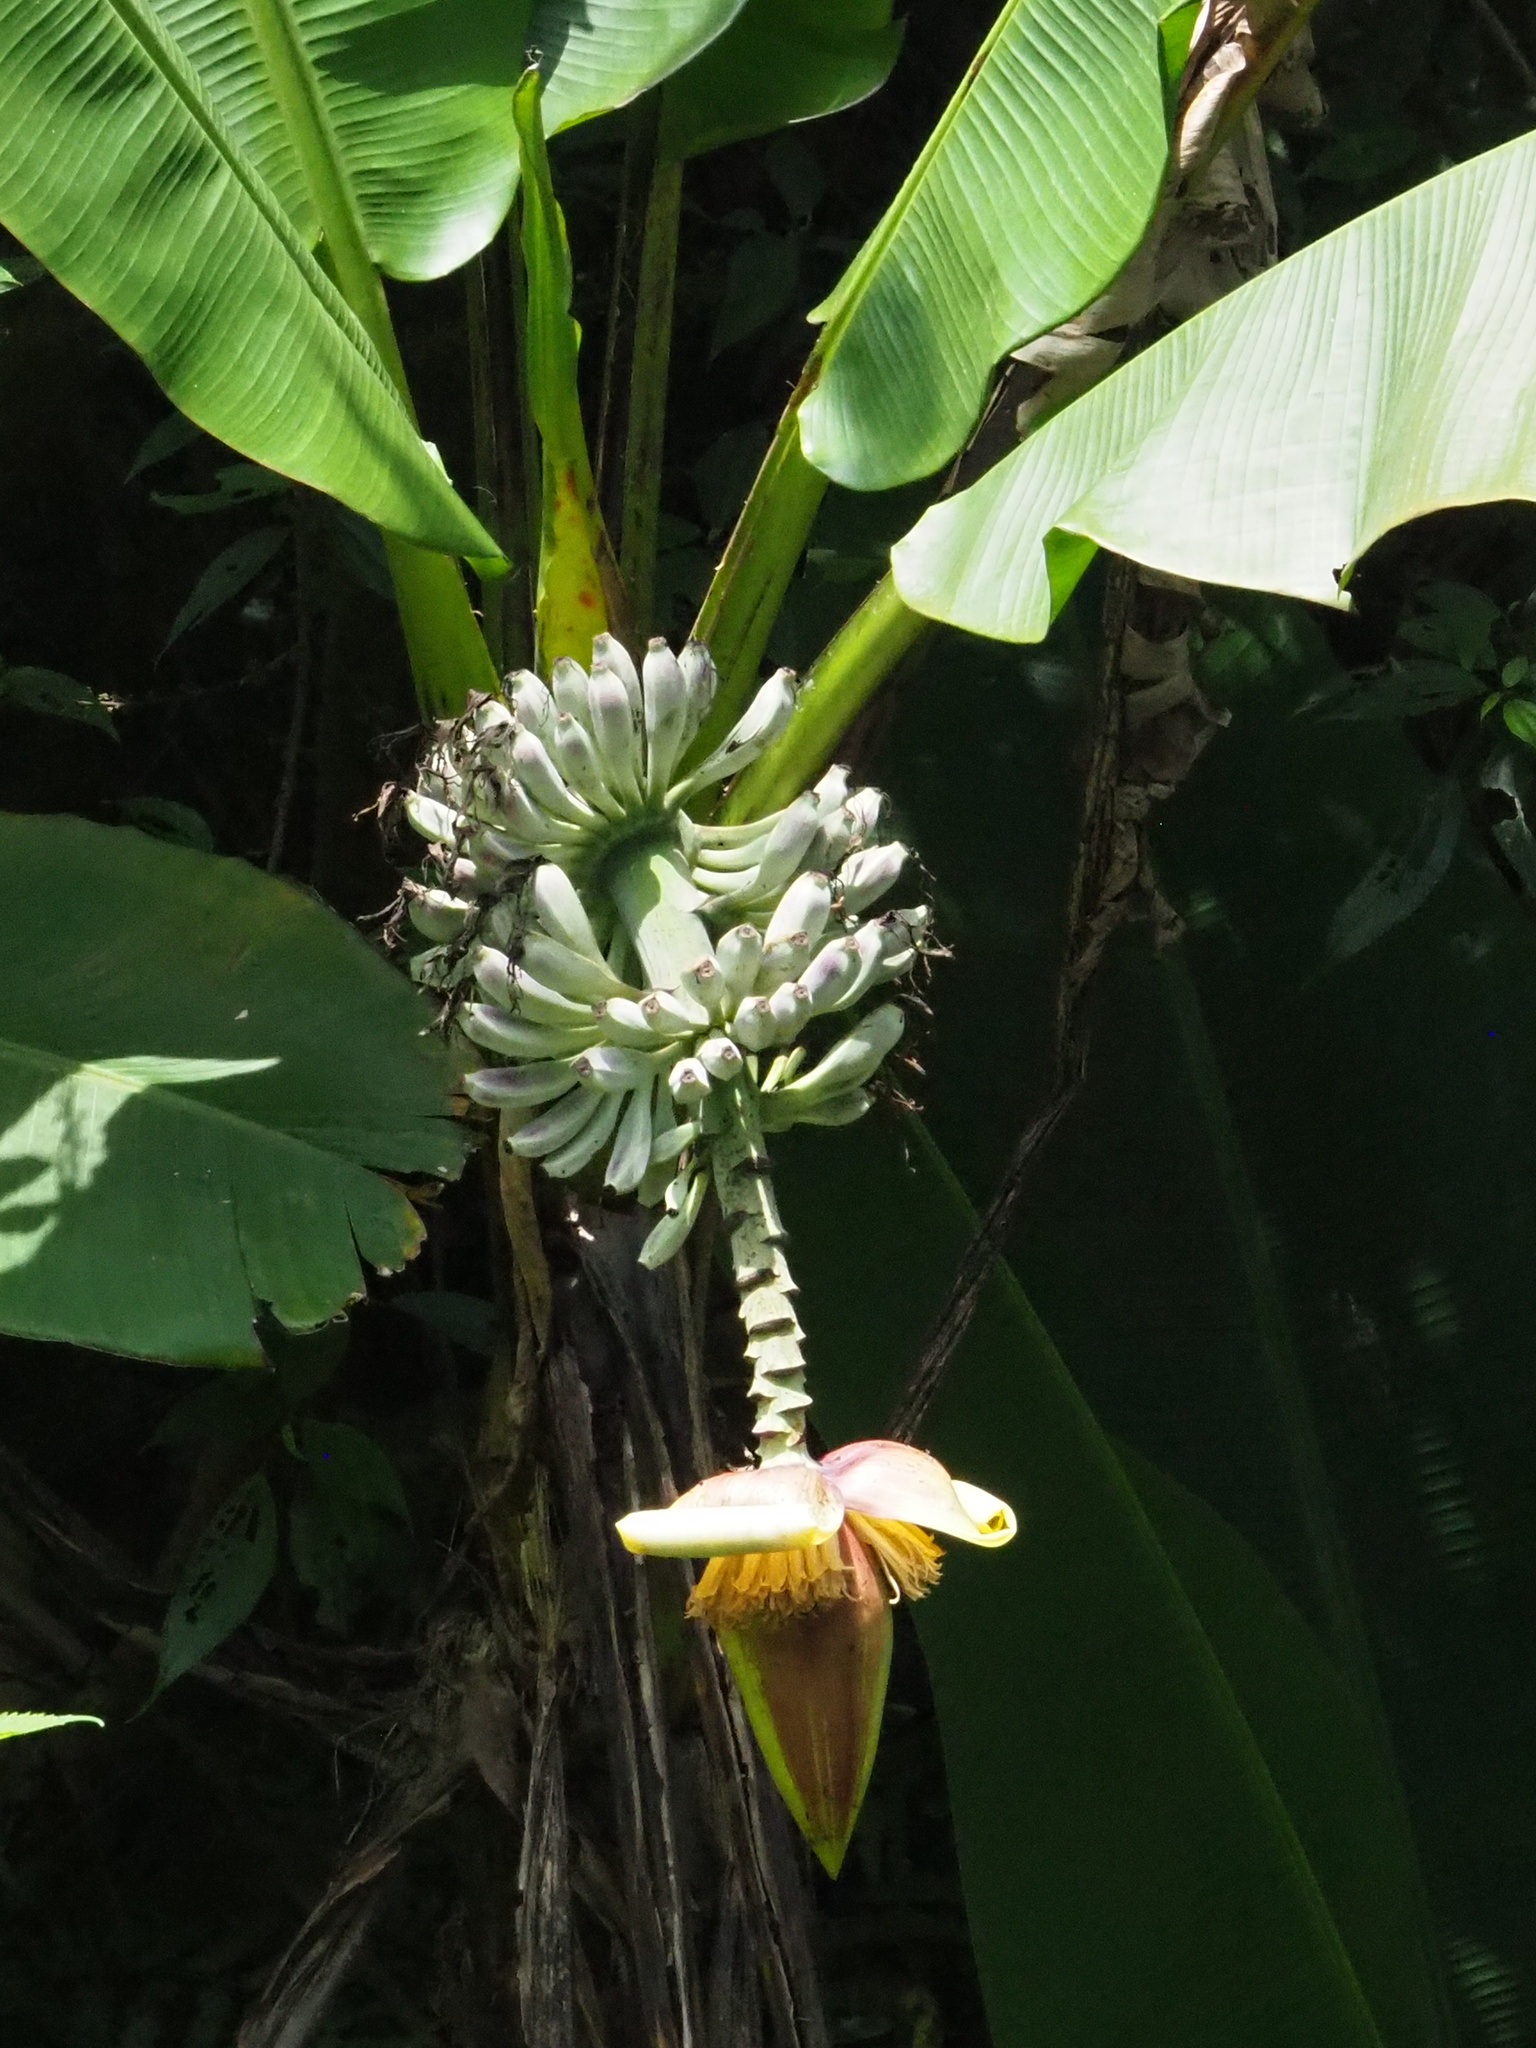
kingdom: Plantae
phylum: Tracheophyta
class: Liliopsida
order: Zingiberales
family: Musaceae
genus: Musa
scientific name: Musa itinerans
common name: Yunnan banana
